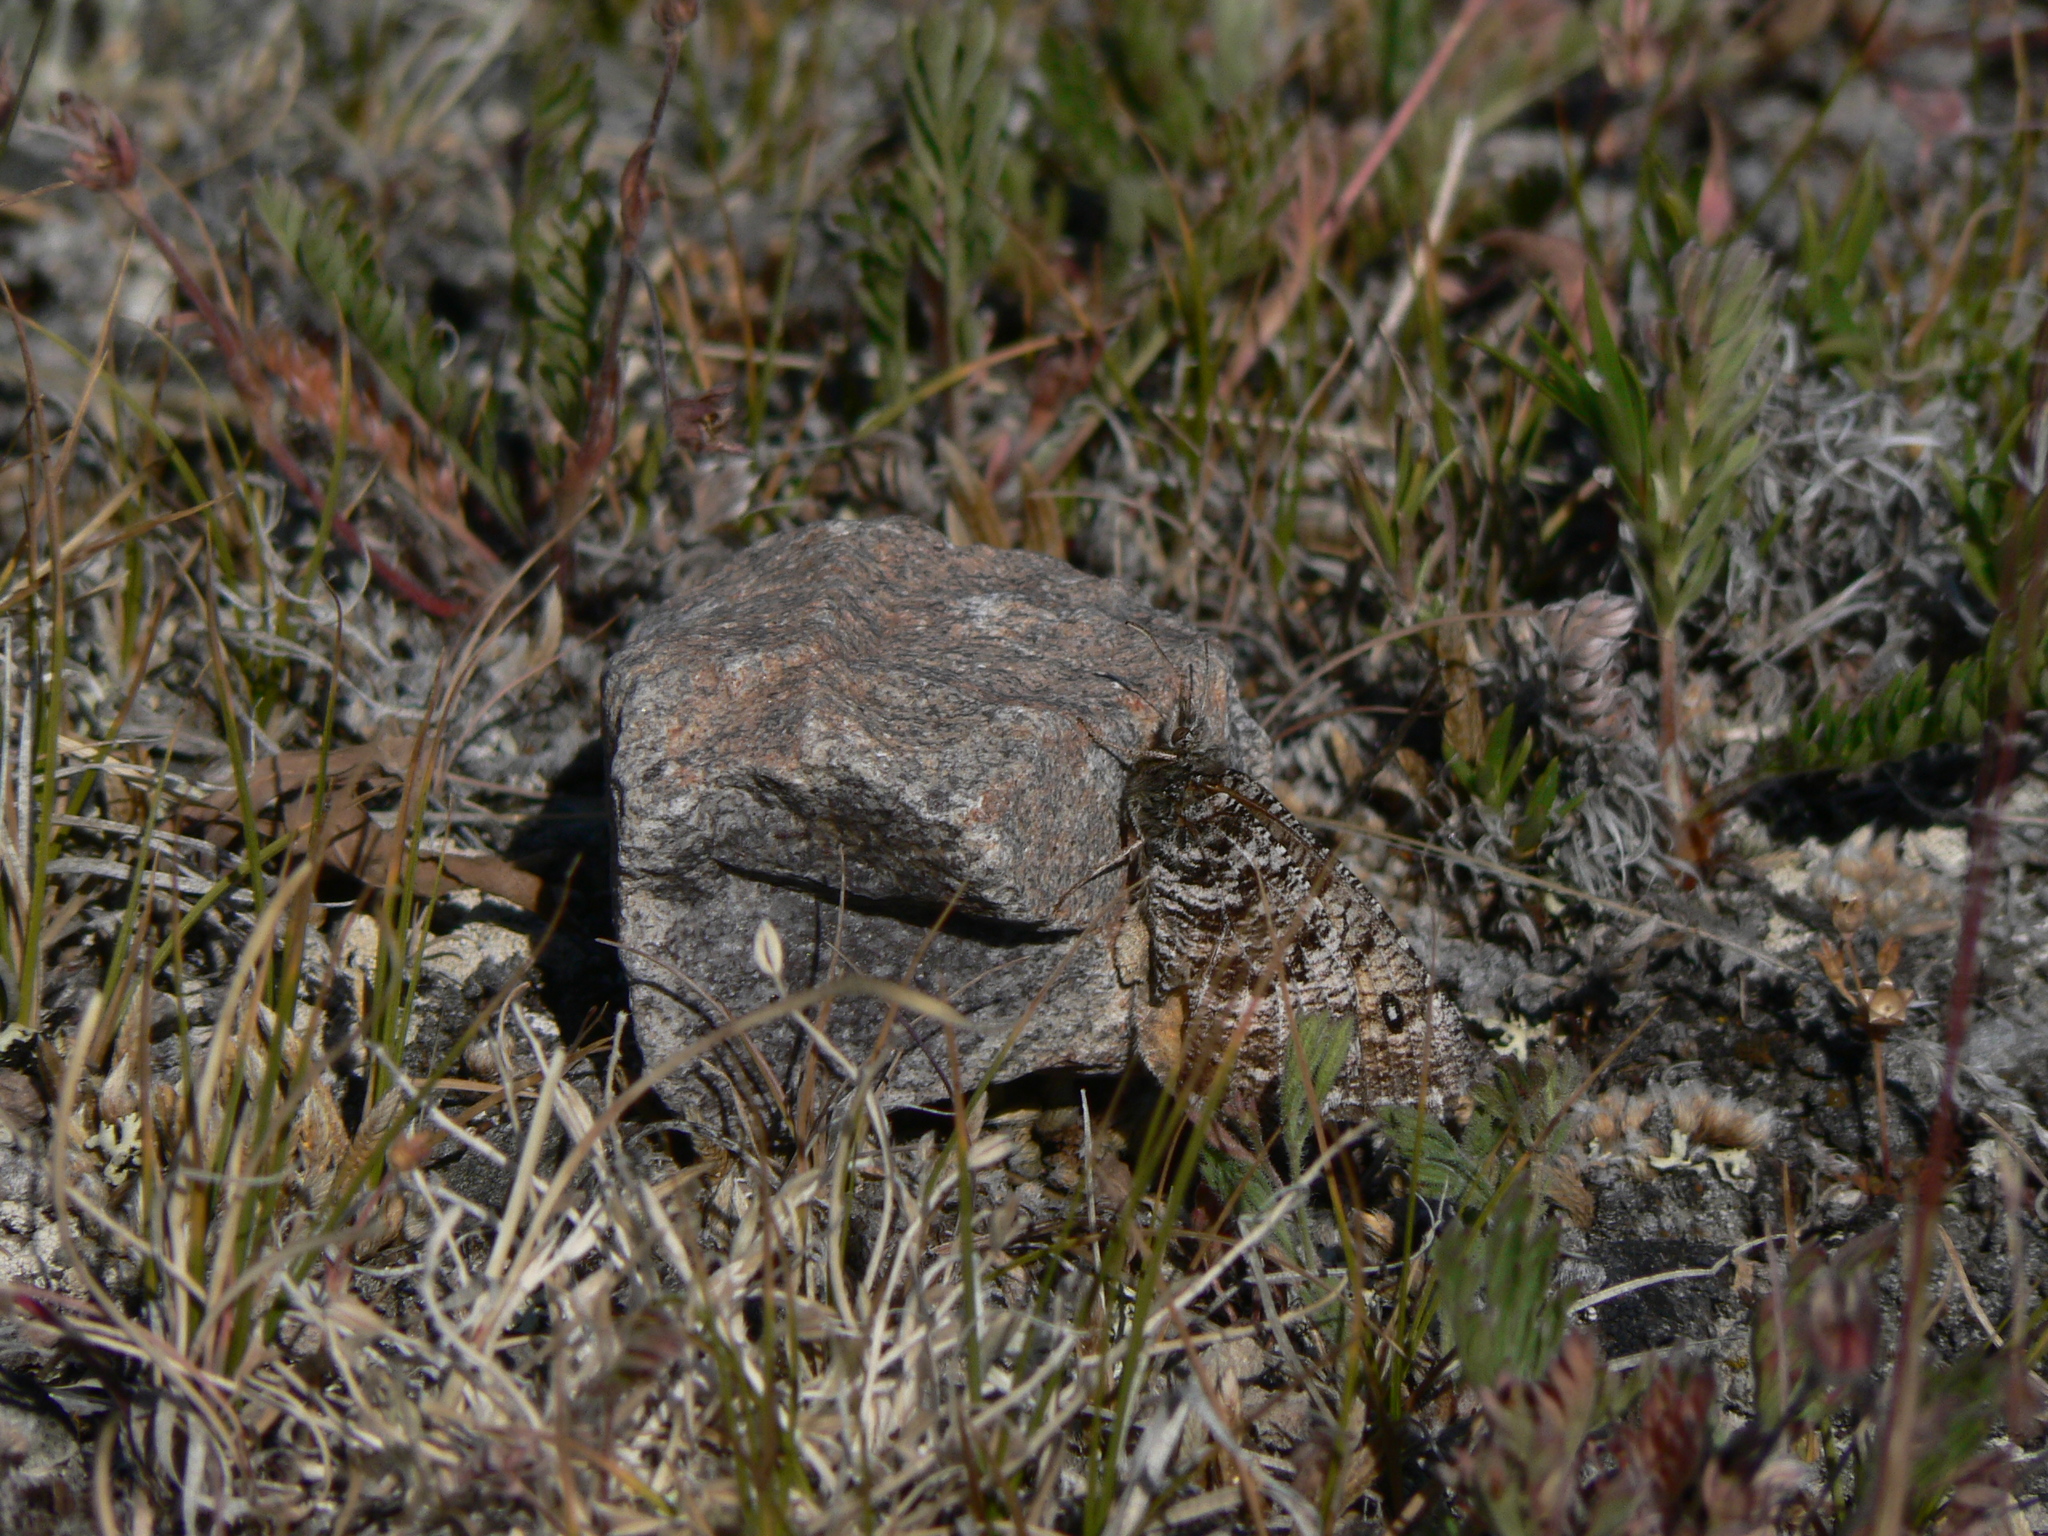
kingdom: Animalia
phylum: Arthropoda
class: Insecta
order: Lepidoptera
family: Nymphalidae
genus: Oeneis
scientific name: Oeneis chryxus
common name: Chryxus arctic
